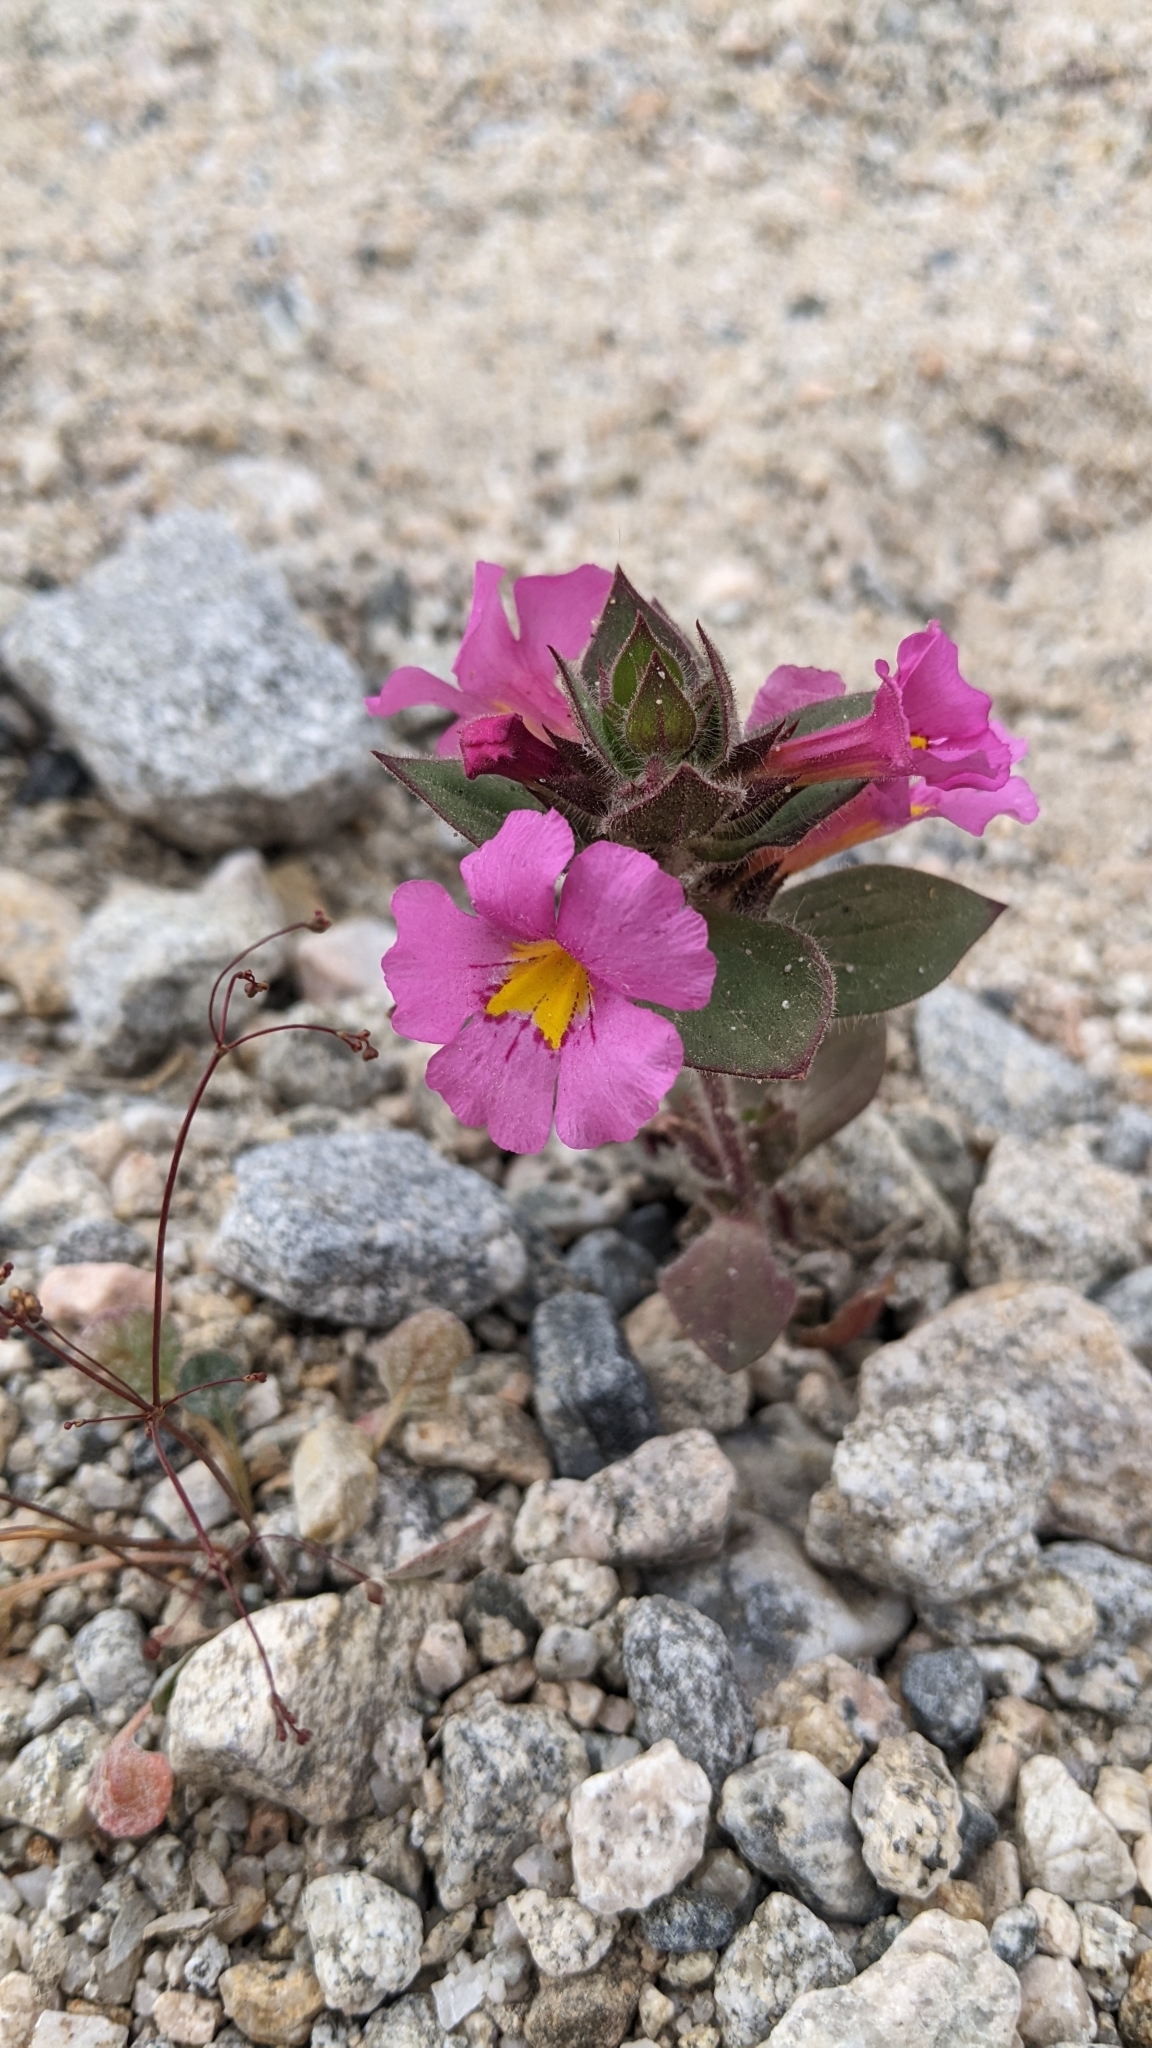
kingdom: Plantae
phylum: Tracheophyta
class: Magnoliopsida
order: Lamiales
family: Phrymaceae
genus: Diplacus
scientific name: Diplacus bigelovii
